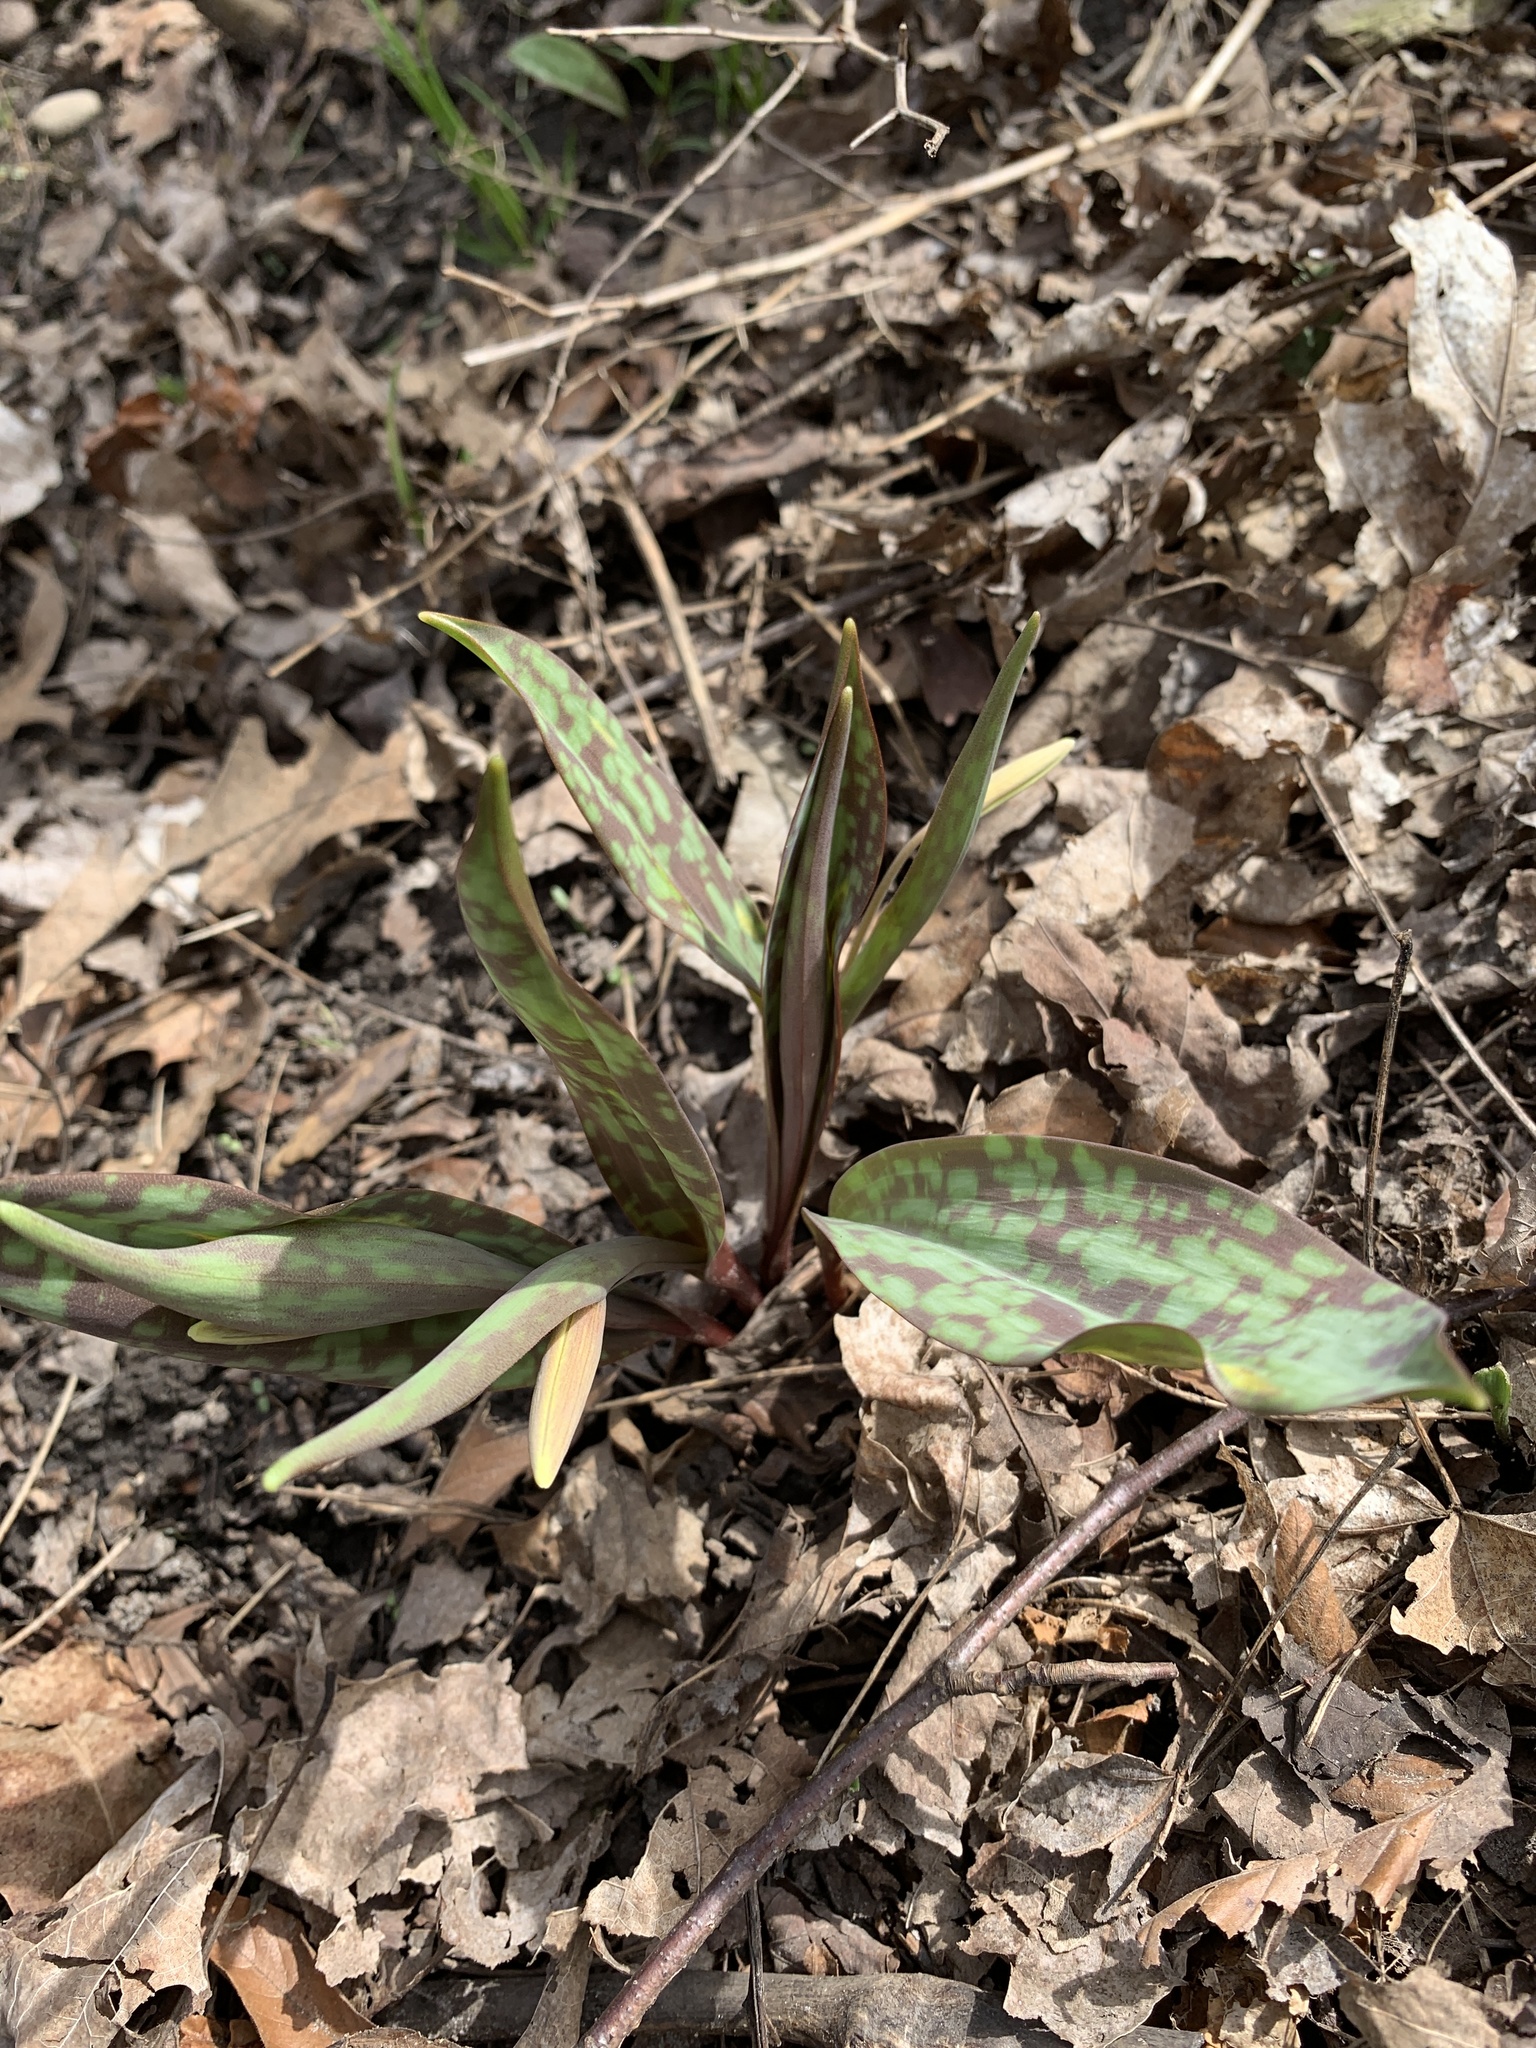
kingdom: Plantae
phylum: Tracheophyta
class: Liliopsida
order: Liliales
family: Liliaceae
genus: Erythronium
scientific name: Erythronium americanum
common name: Yellow adder's-tongue
